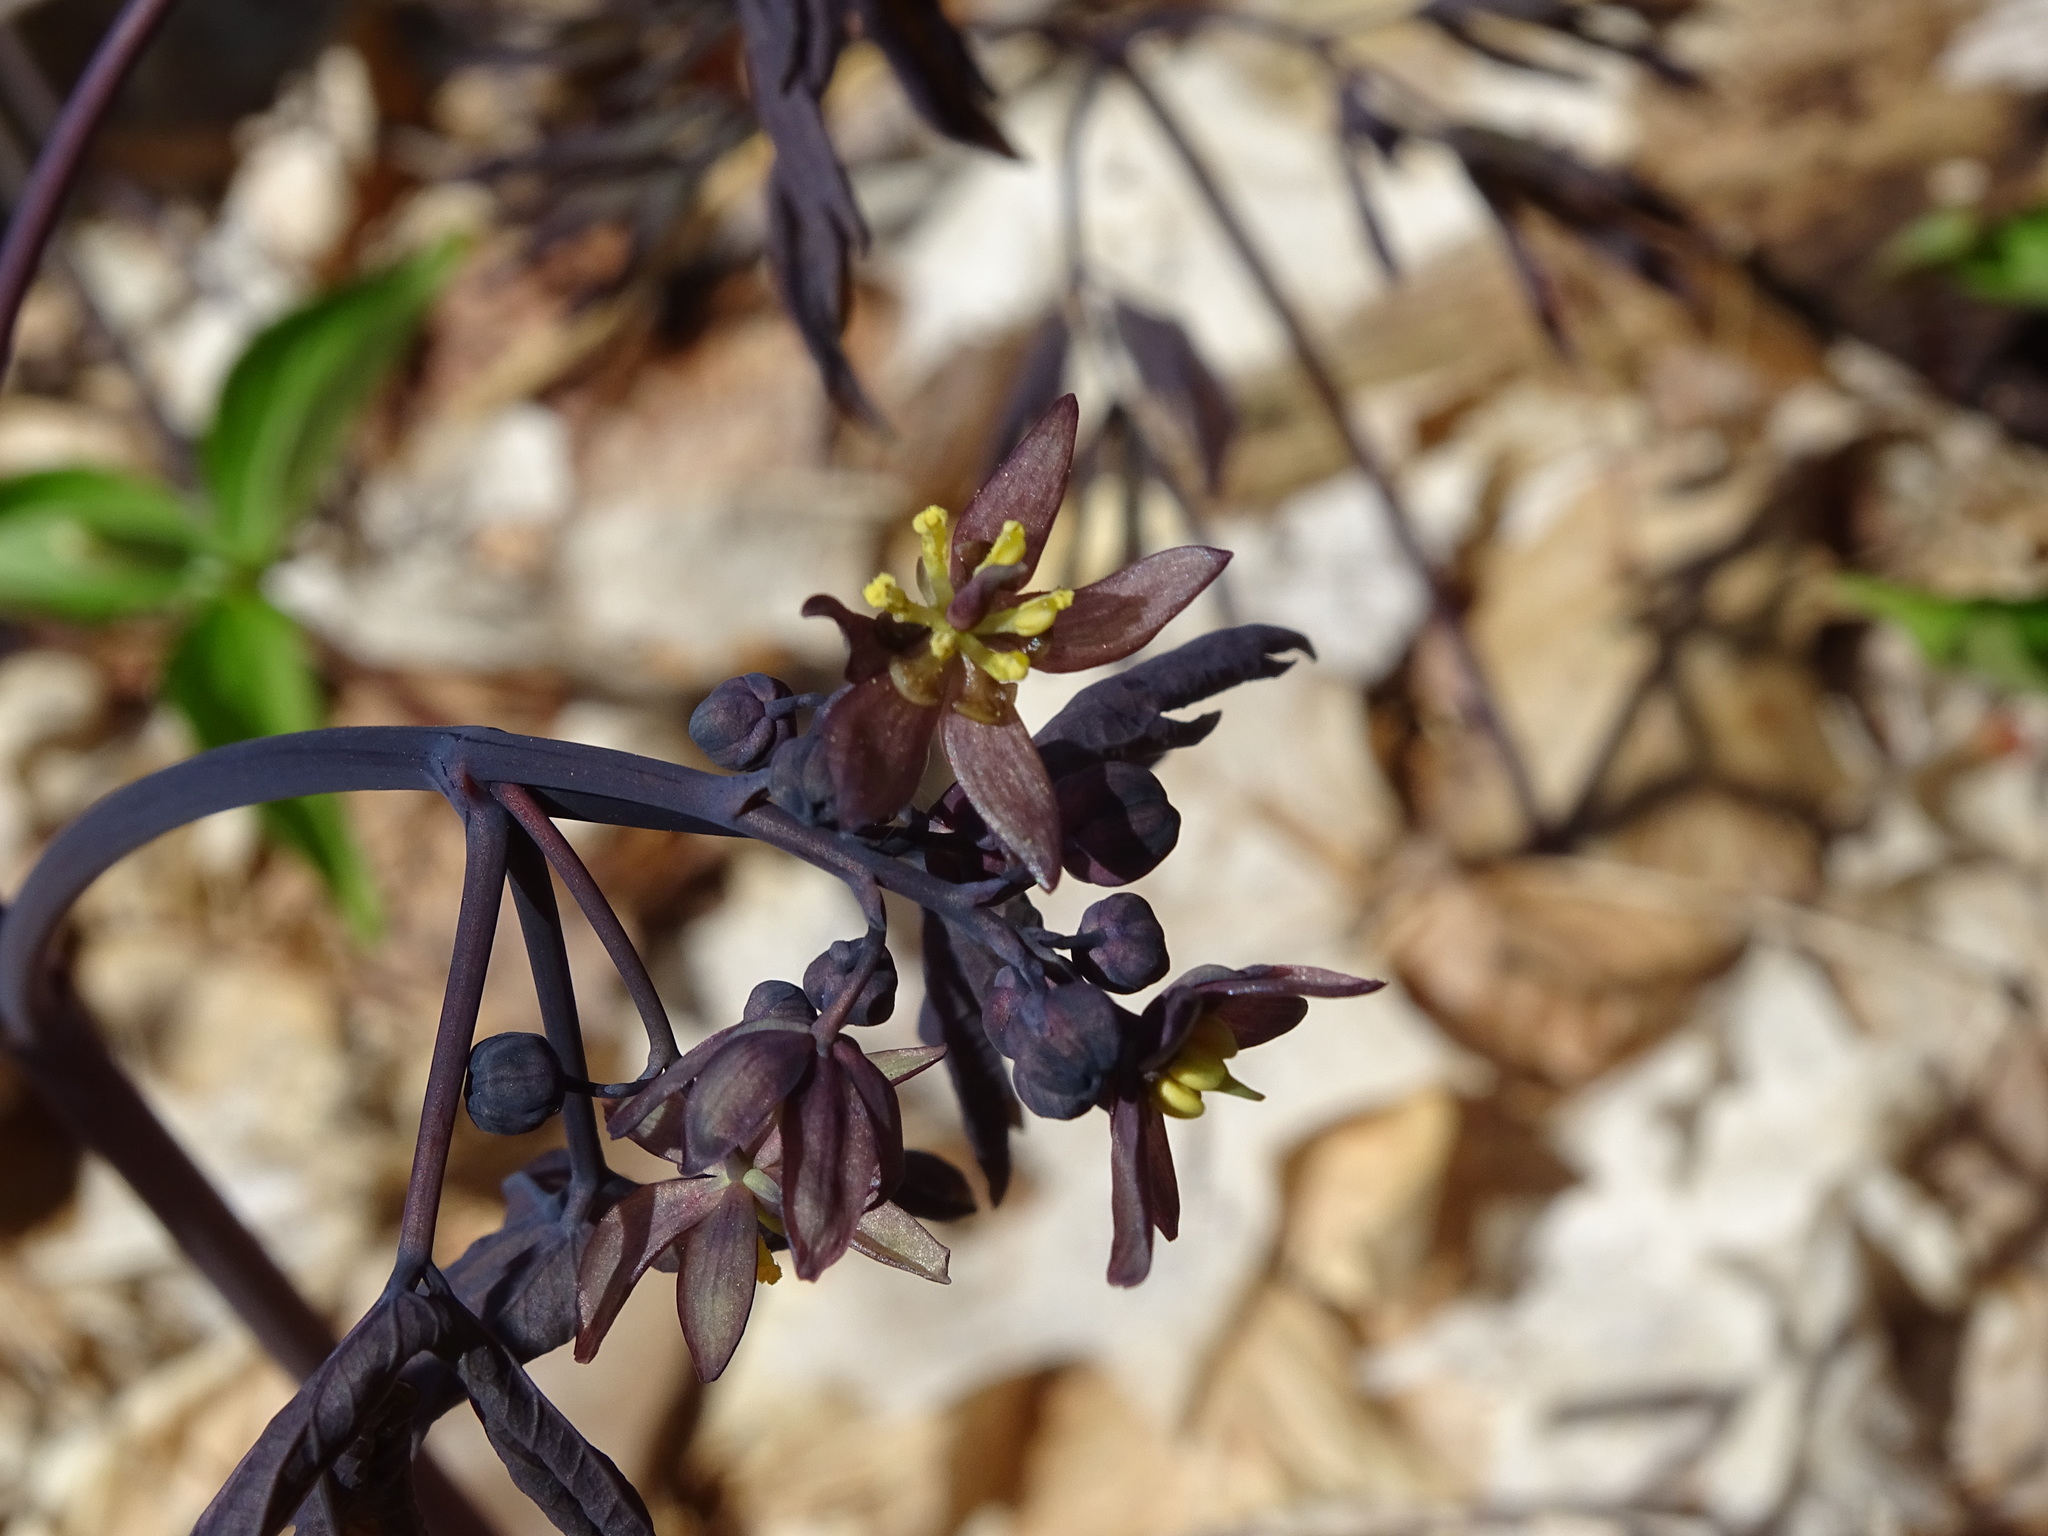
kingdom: Plantae
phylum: Tracheophyta
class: Magnoliopsida
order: Ranunculales
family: Berberidaceae
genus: Caulophyllum
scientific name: Caulophyllum giganteum
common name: Blue cohosh
